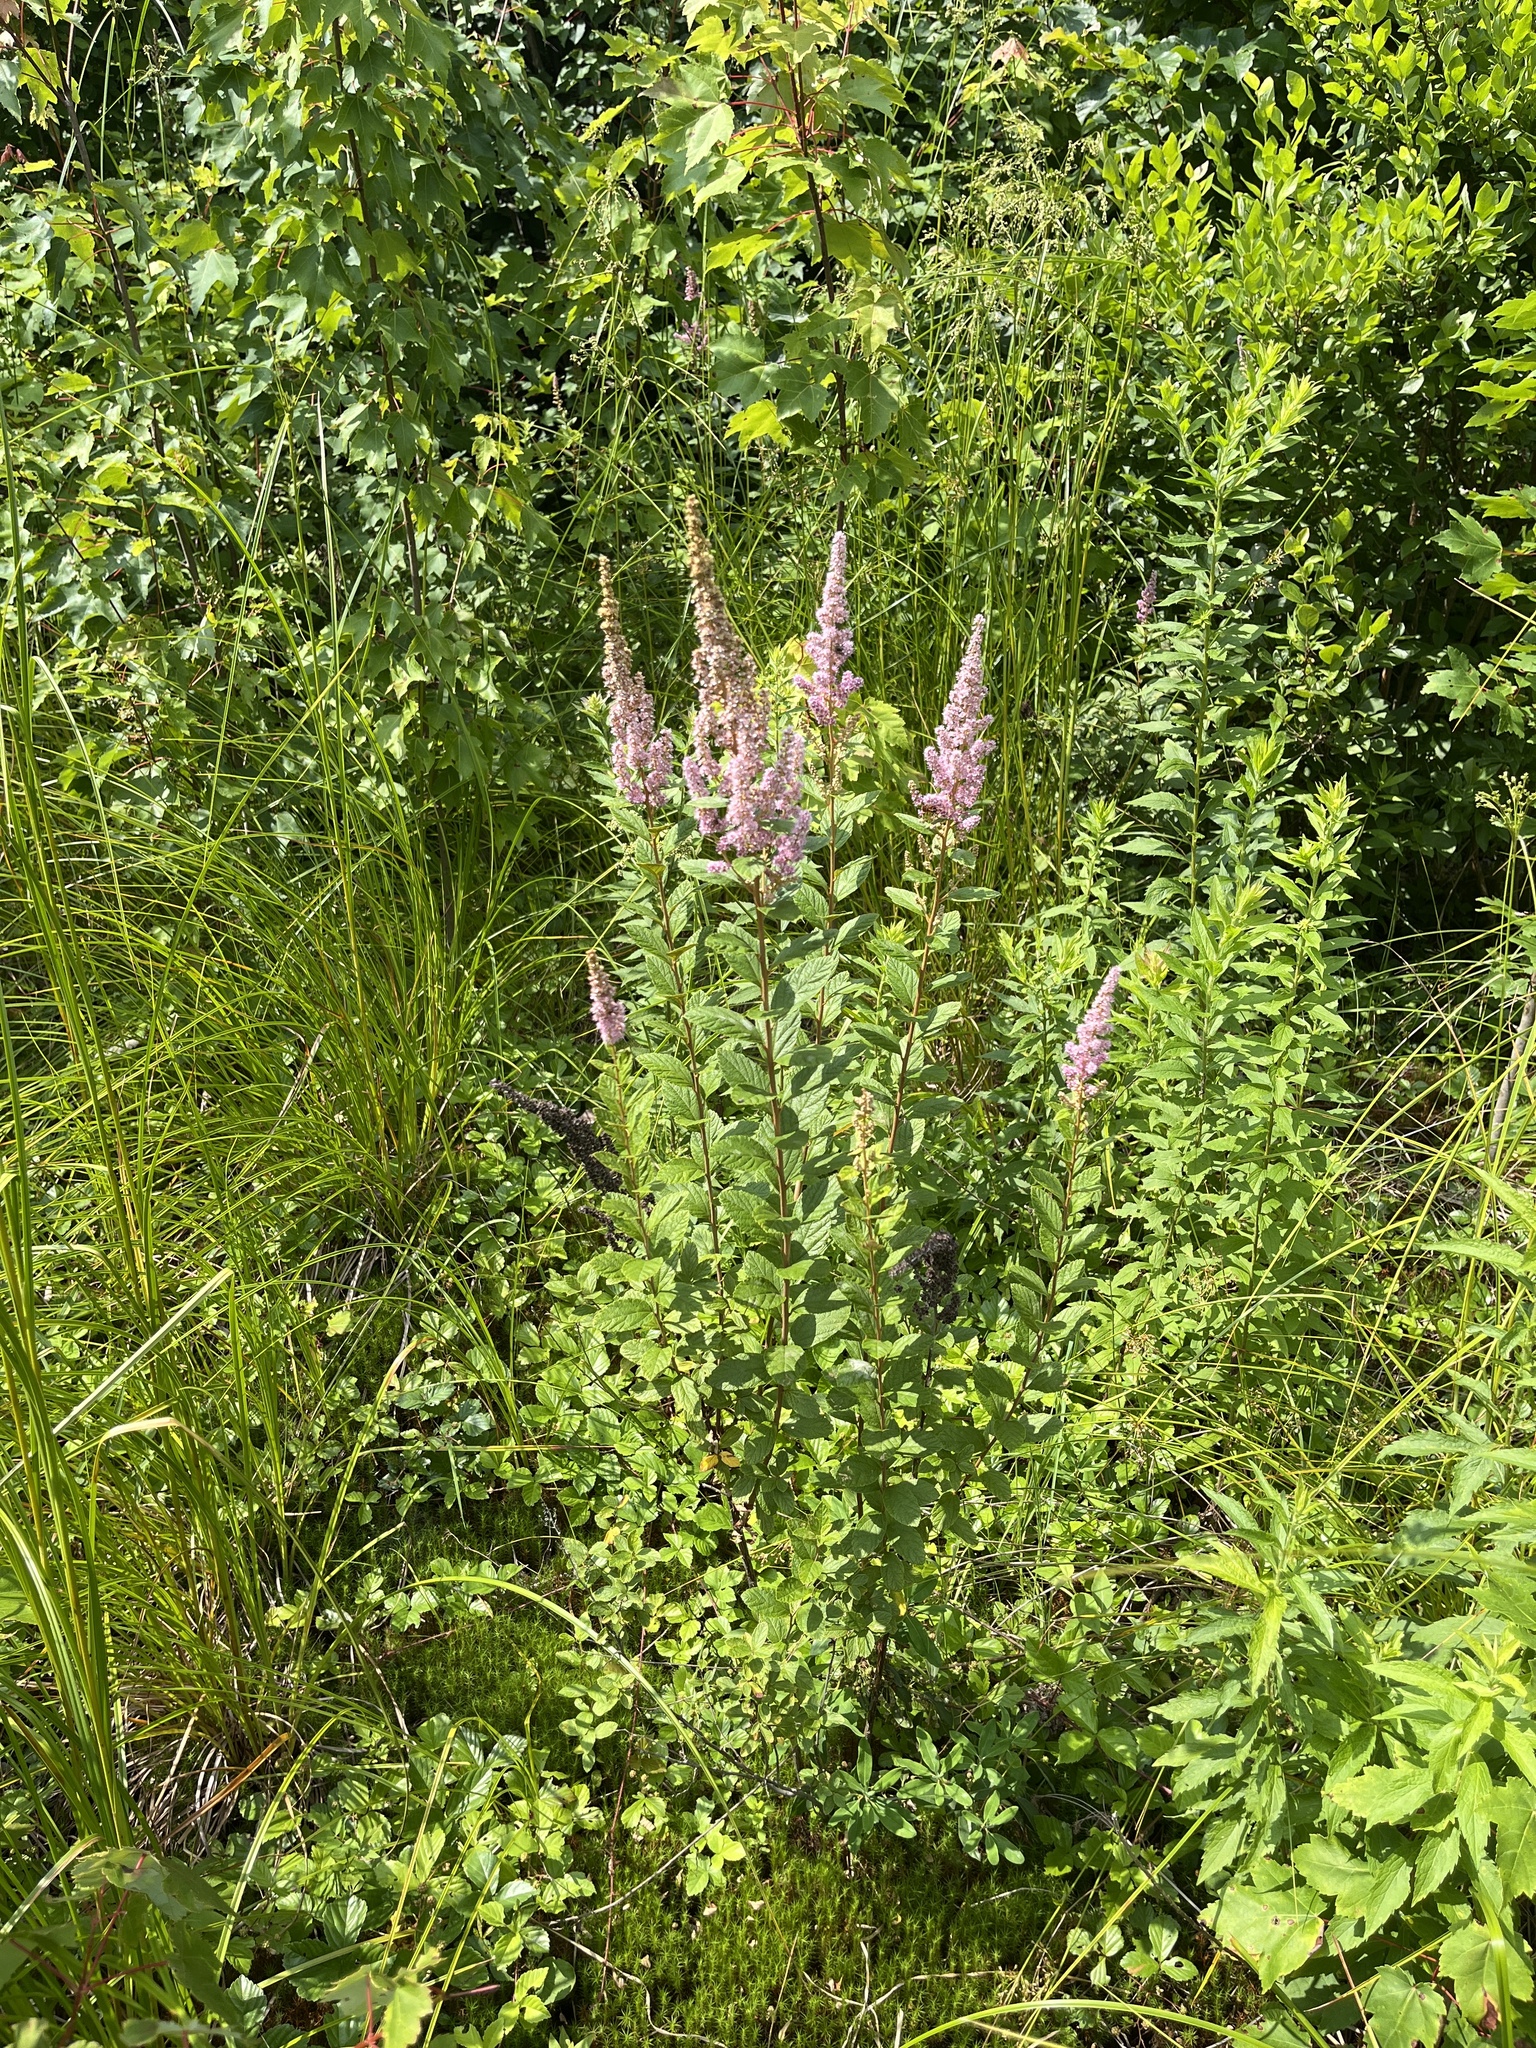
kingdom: Plantae
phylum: Tracheophyta
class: Magnoliopsida
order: Rosales
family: Rosaceae
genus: Spiraea
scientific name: Spiraea tomentosa
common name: Hardhack
